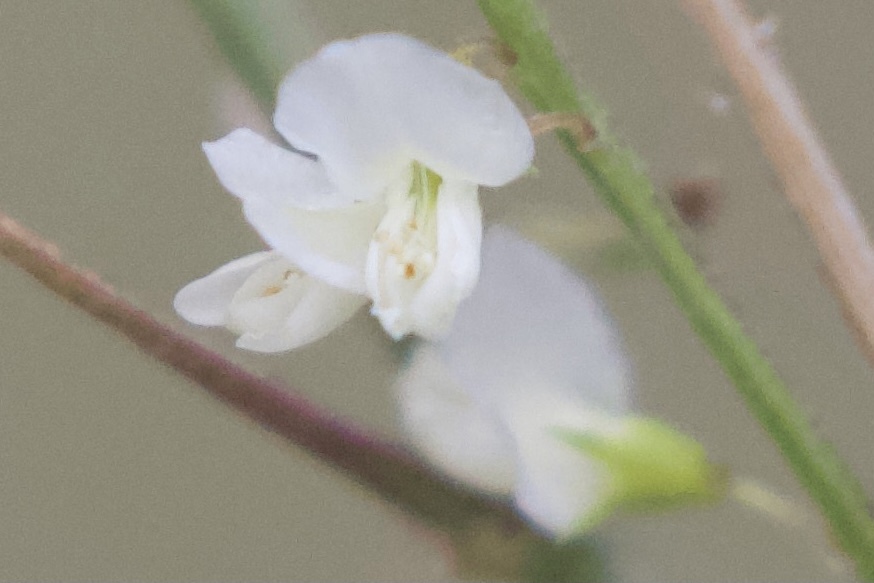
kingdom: Plantae
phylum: Tracheophyta
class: Magnoliopsida
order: Fabales
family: Fabaceae
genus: Melilotus
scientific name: Melilotus albus
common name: White melilot
